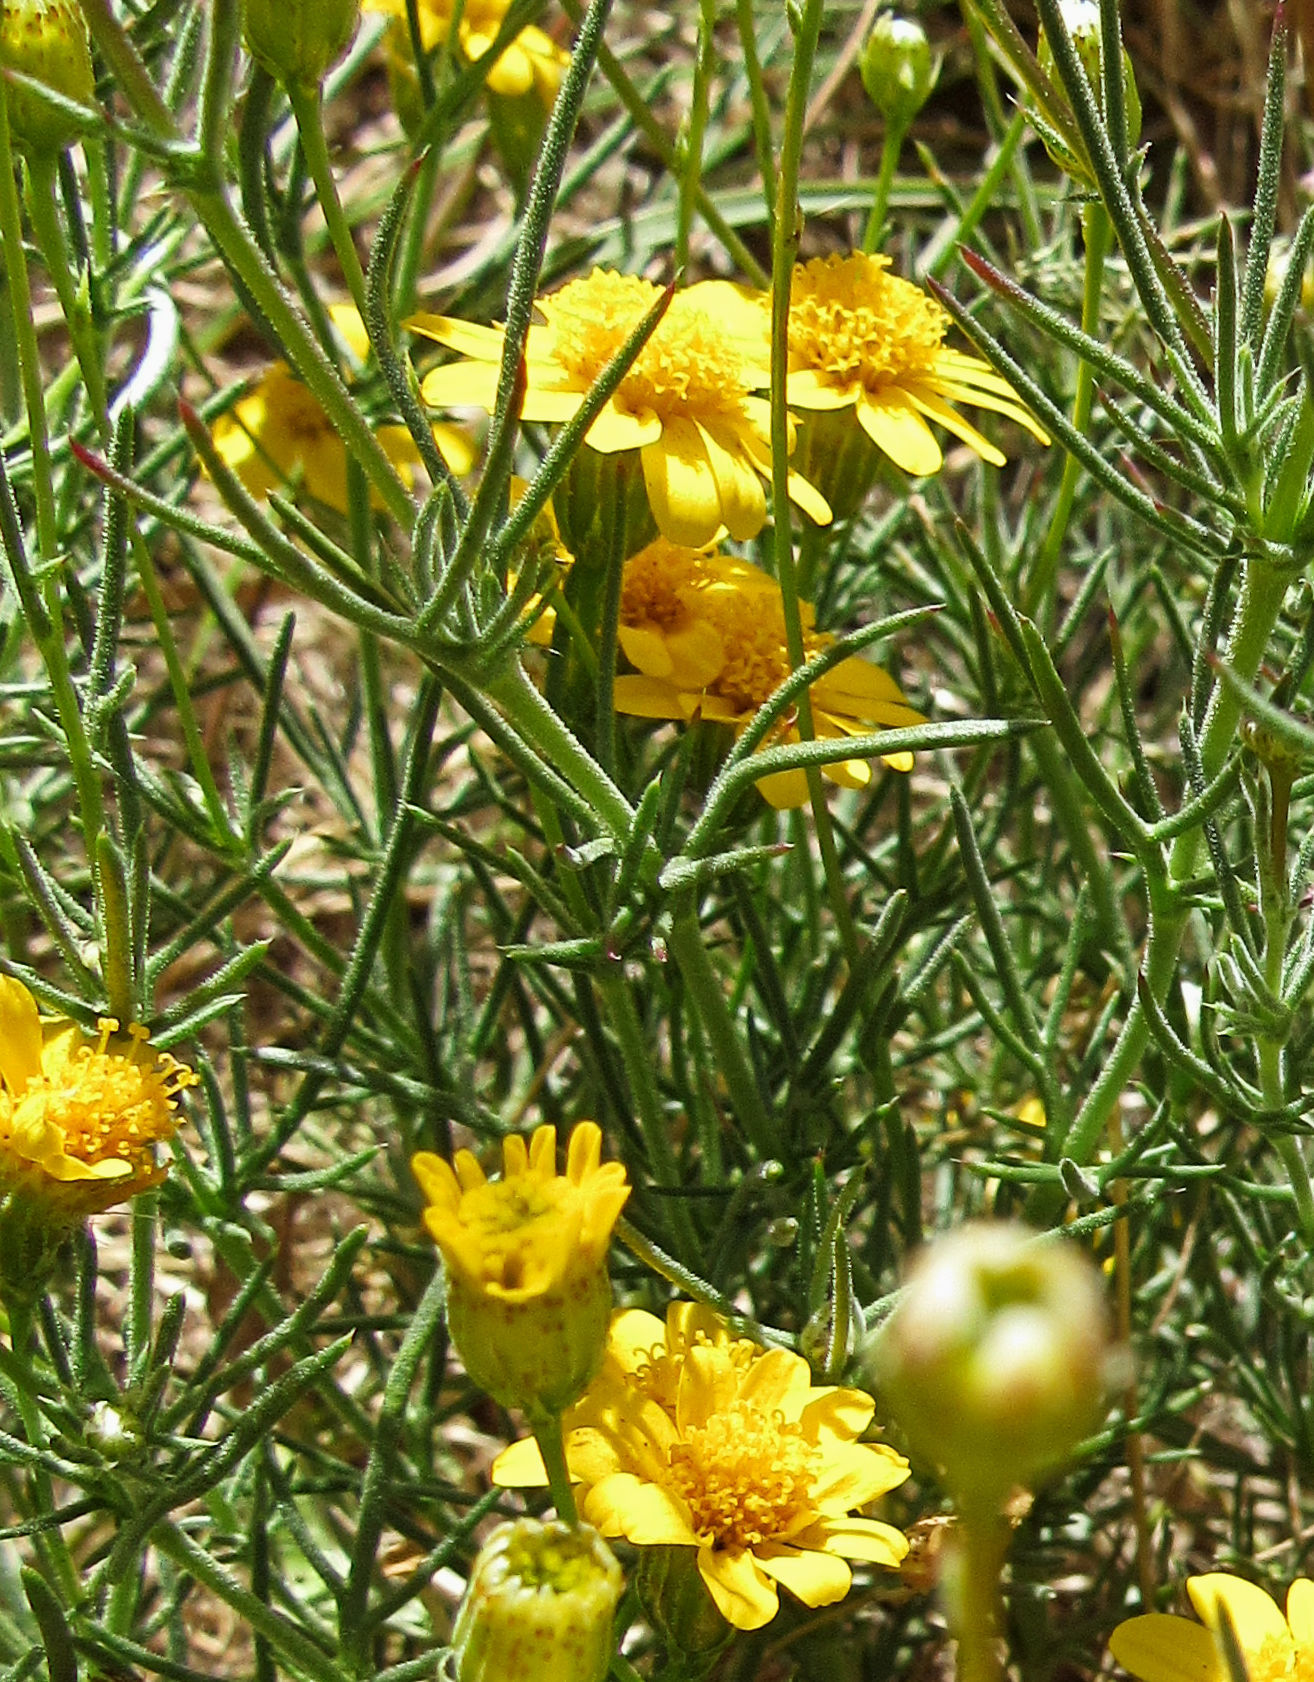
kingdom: Plantae
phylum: Tracheophyta
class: Magnoliopsida
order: Asterales
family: Asteraceae
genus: Thymophylla
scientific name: Thymophylla pentachaeta
